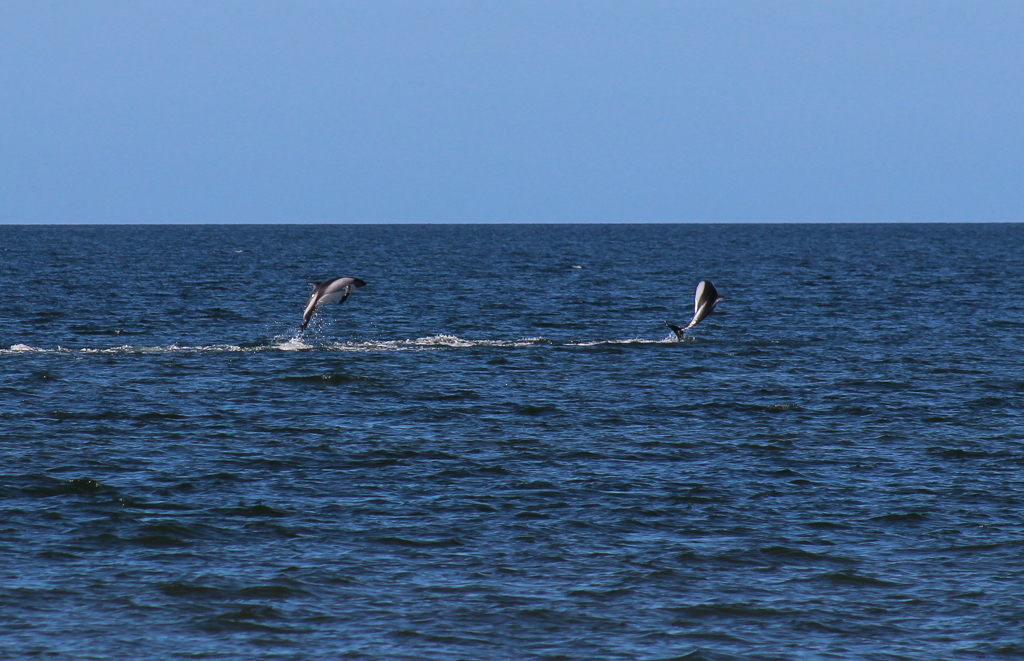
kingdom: Animalia
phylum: Chordata
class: Mammalia
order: Cetacea
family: Delphinidae
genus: Lagenorhynchus
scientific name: Lagenorhynchus australis
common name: Peale's dolphin
